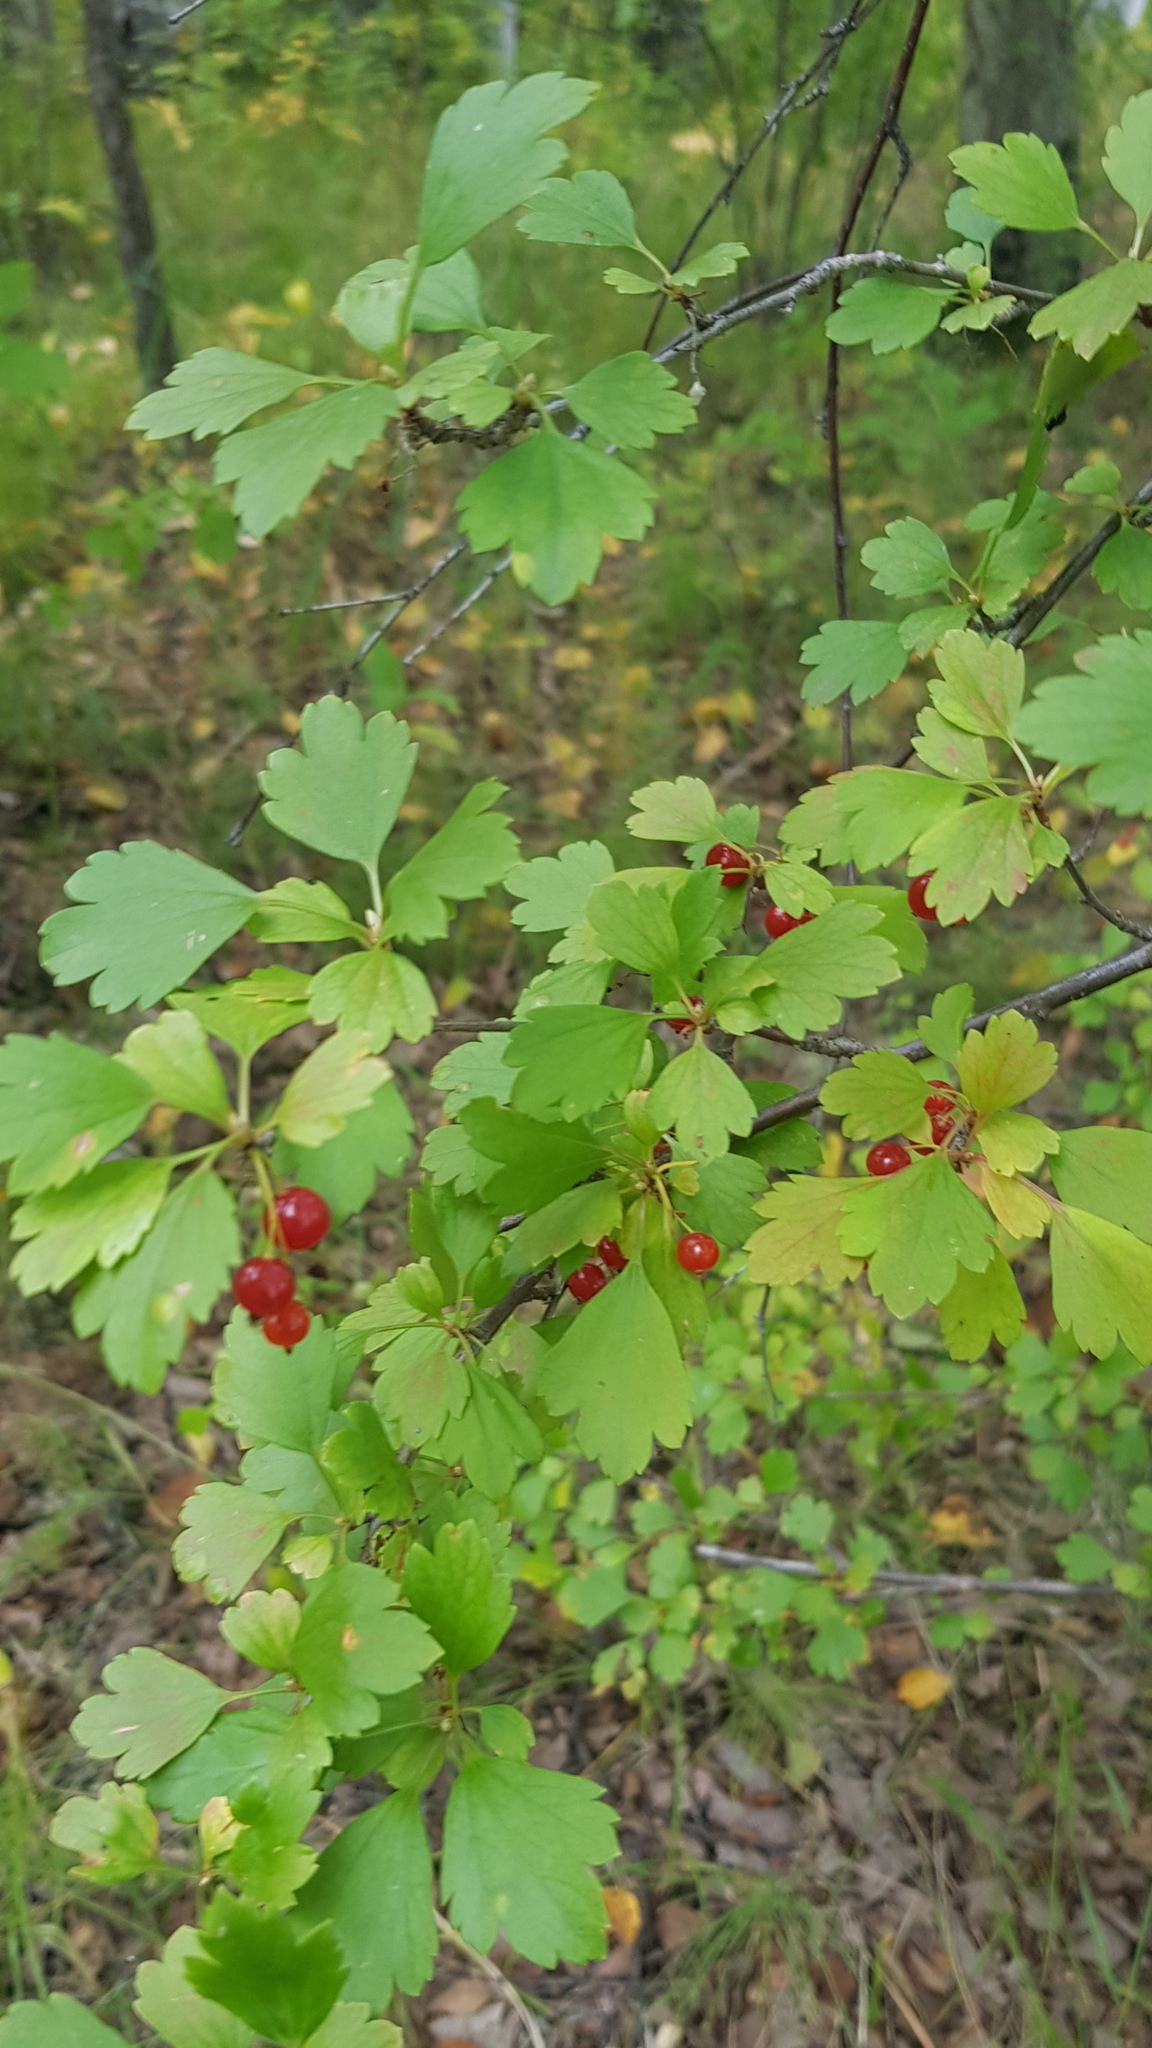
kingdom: Plantae
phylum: Tracheophyta
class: Magnoliopsida
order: Saxifragales
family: Grossulariaceae
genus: Ribes
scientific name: Ribes diacanthum
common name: Siberian currant
